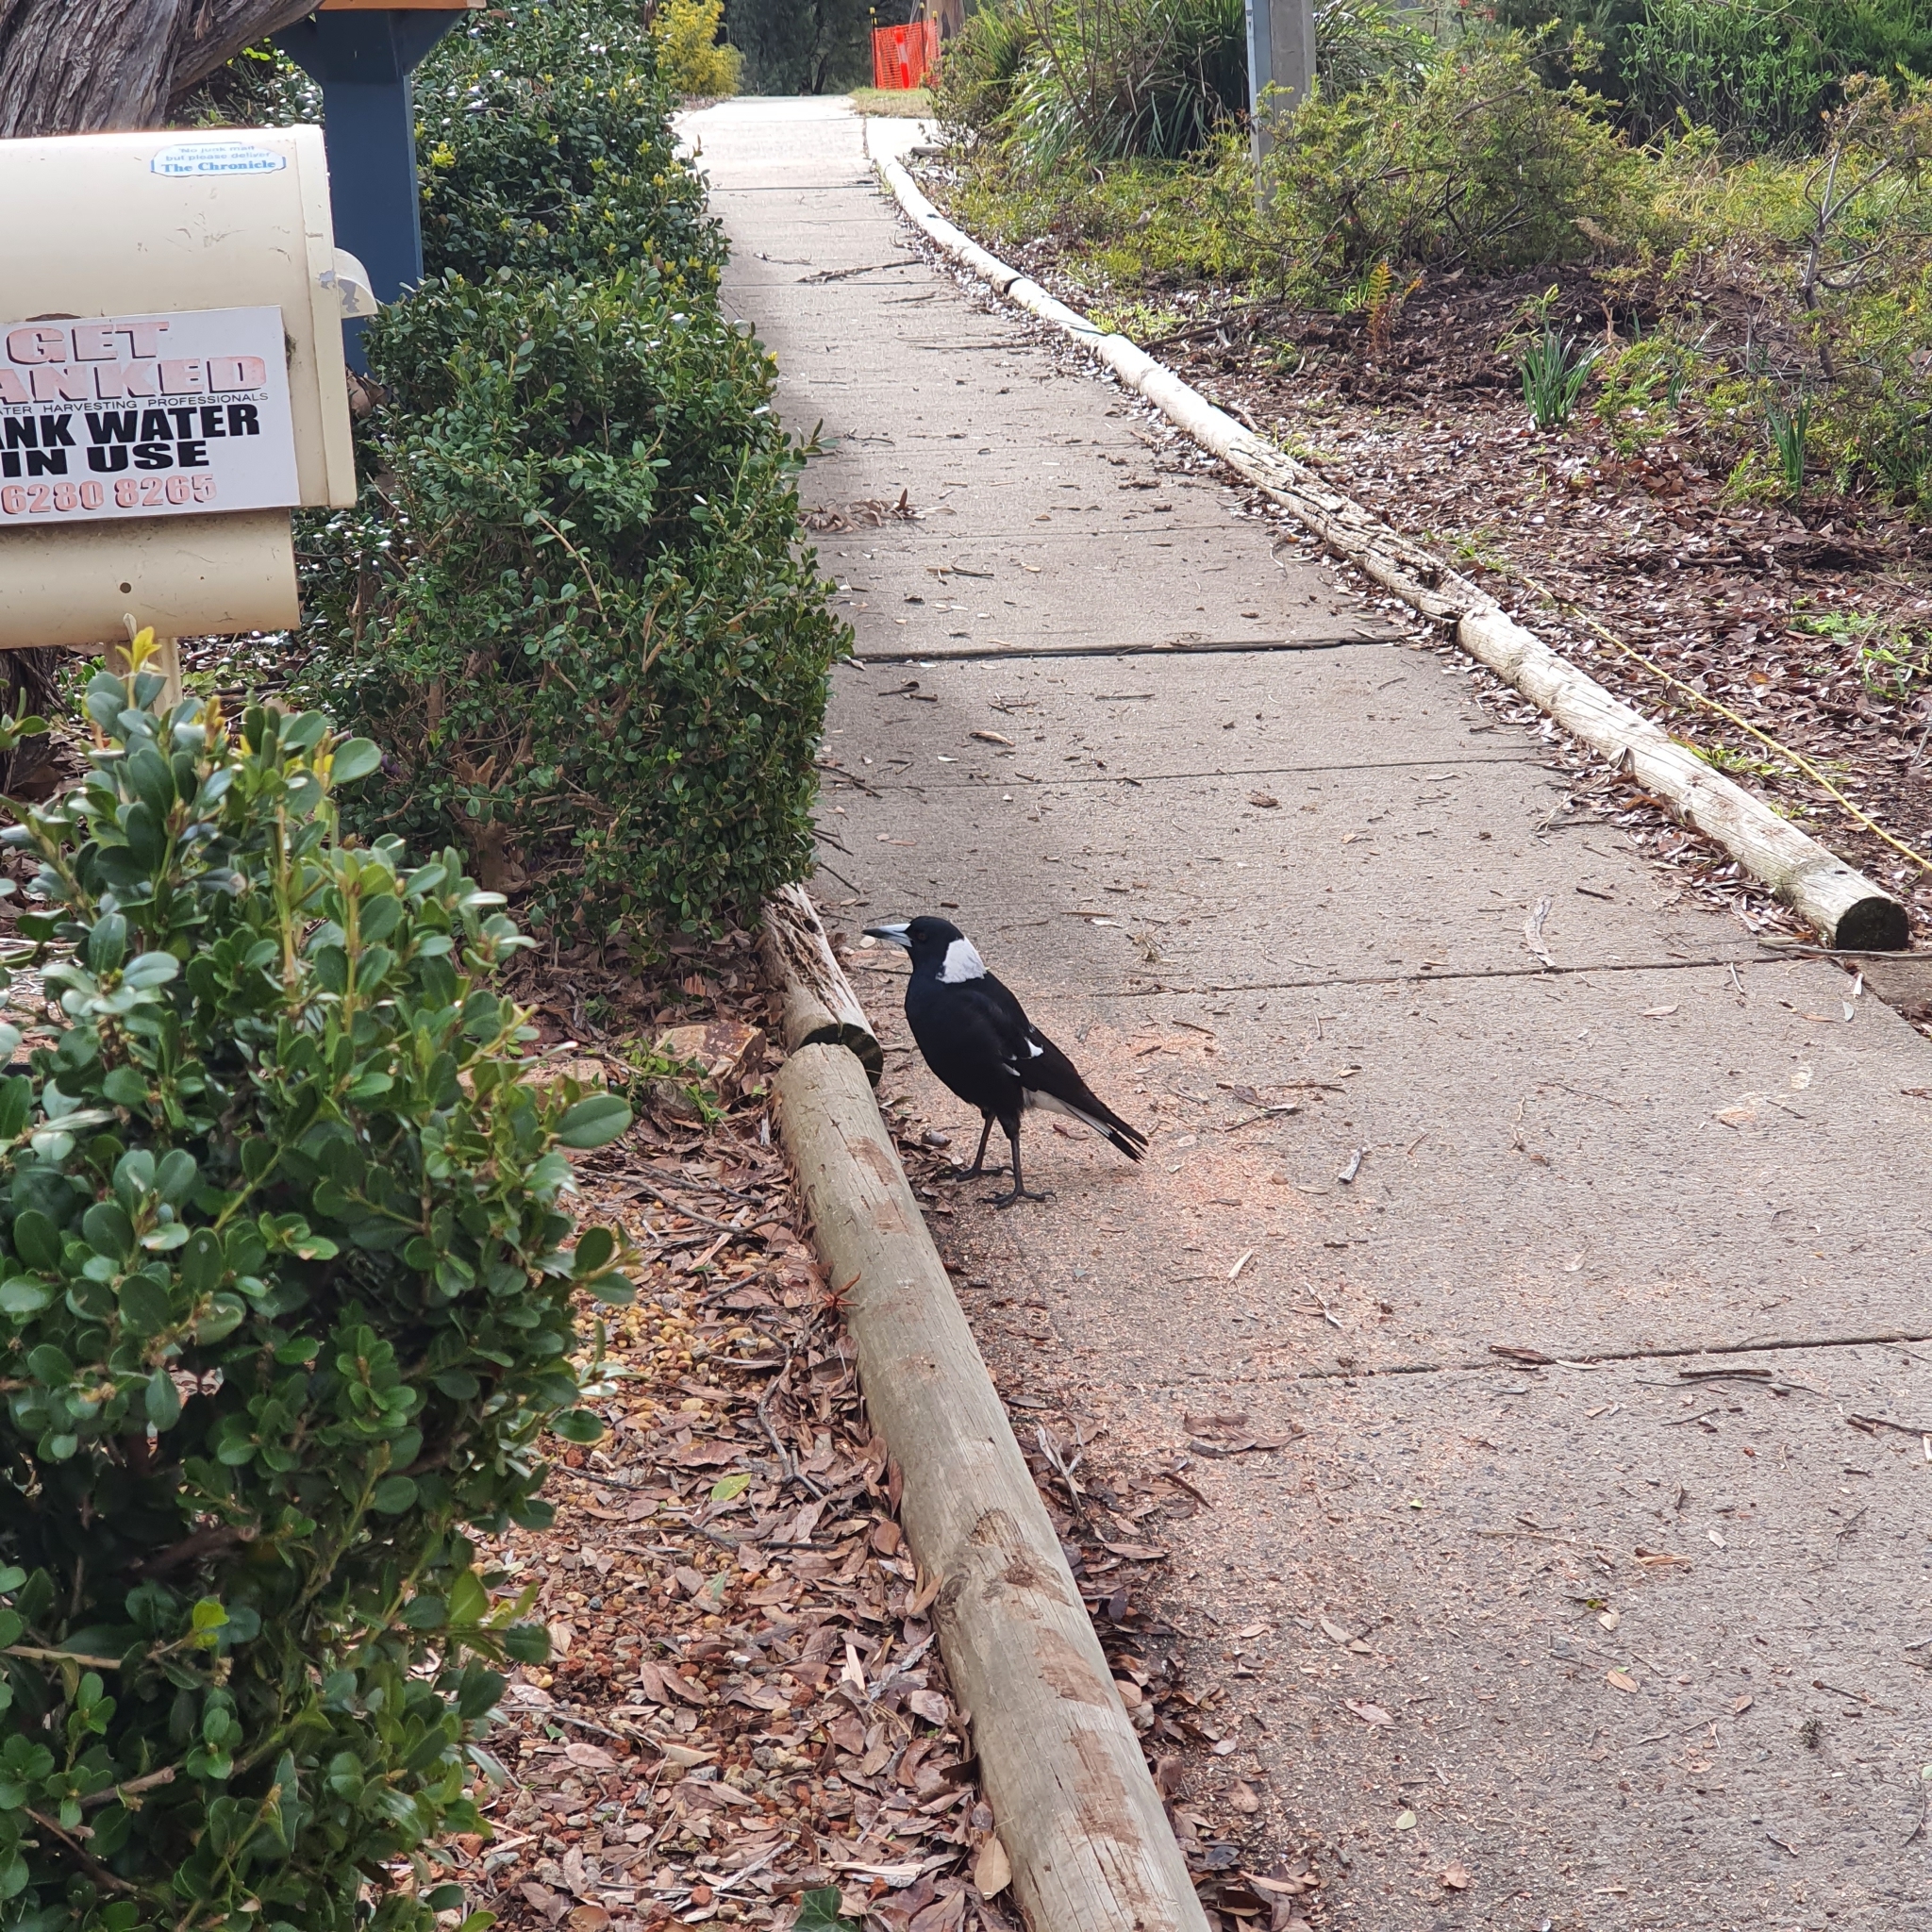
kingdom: Animalia
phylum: Chordata
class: Aves
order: Passeriformes
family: Cracticidae
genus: Gymnorhina
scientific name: Gymnorhina tibicen
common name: Australian magpie
